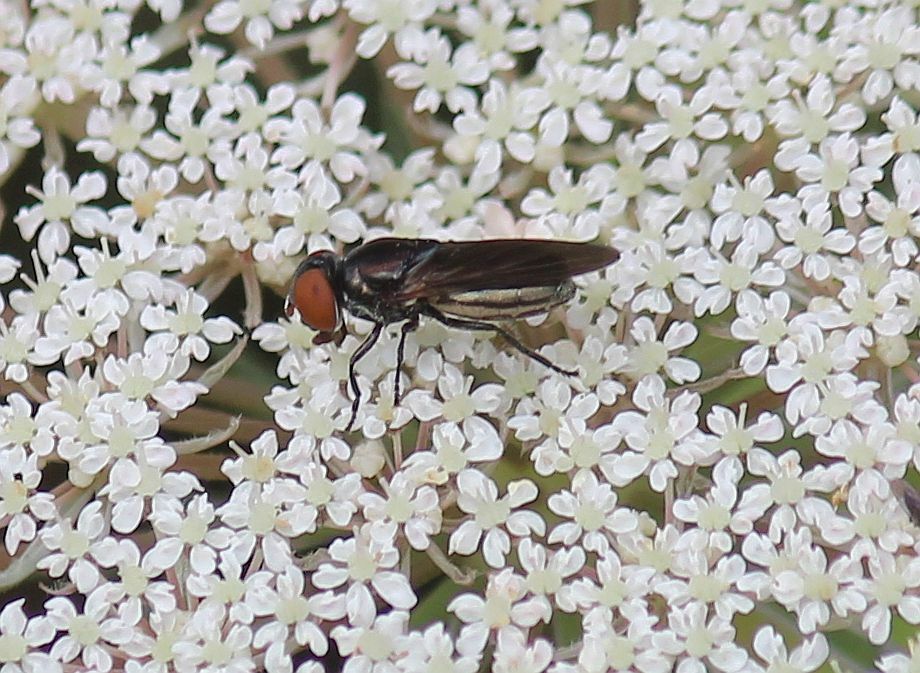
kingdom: Animalia
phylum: Arthropoda
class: Insecta
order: Diptera
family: Syrphidae
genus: Chrysogaster
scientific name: Chrysogaster solstitialis
